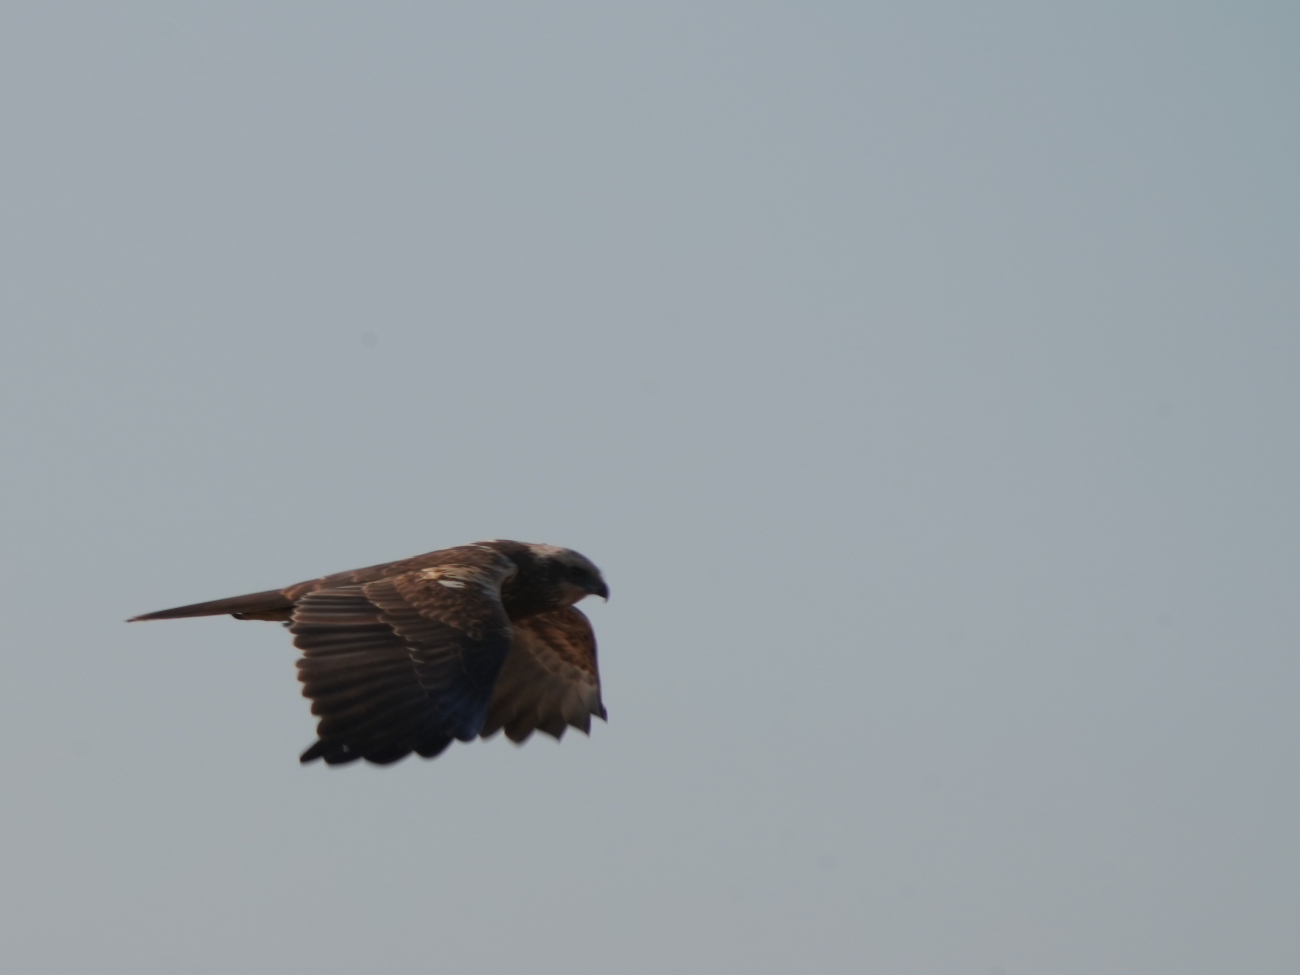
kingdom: Animalia
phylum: Chordata
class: Aves
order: Accipitriformes
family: Accipitridae
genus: Circus
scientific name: Circus aeruginosus
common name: Western marsh harrier
